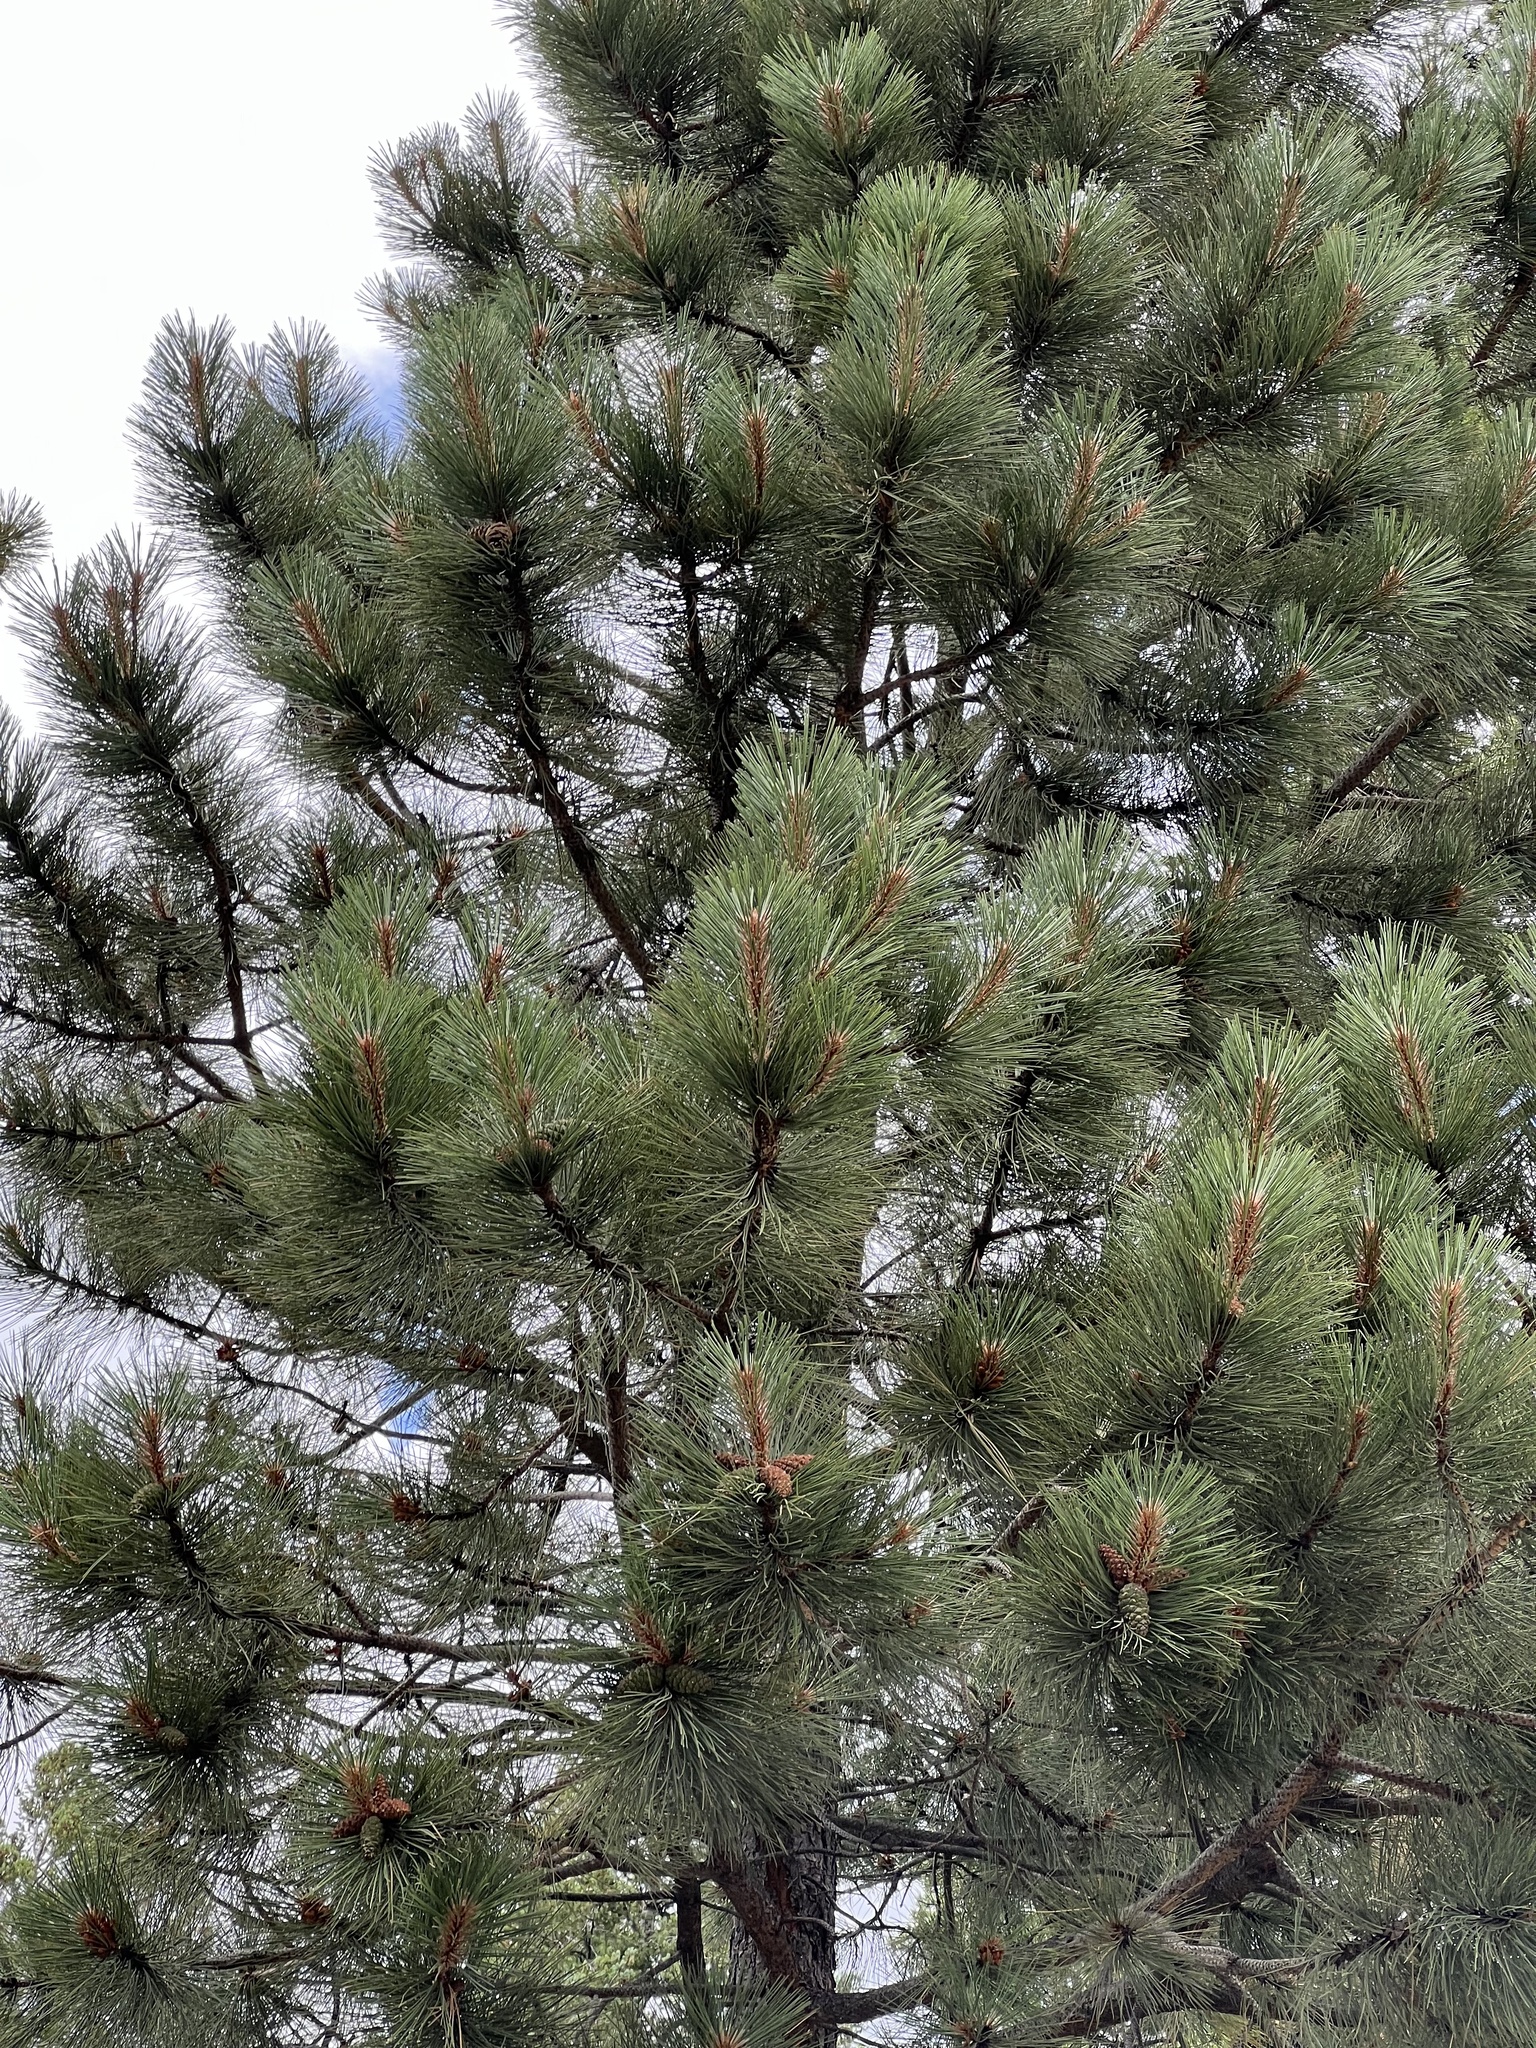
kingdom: Plantae
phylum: Tracheophyta
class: Pinopsida
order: Pinales
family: Pinaceae
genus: Pinus
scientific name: Pinus ponderosa
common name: Western yellow-pine
